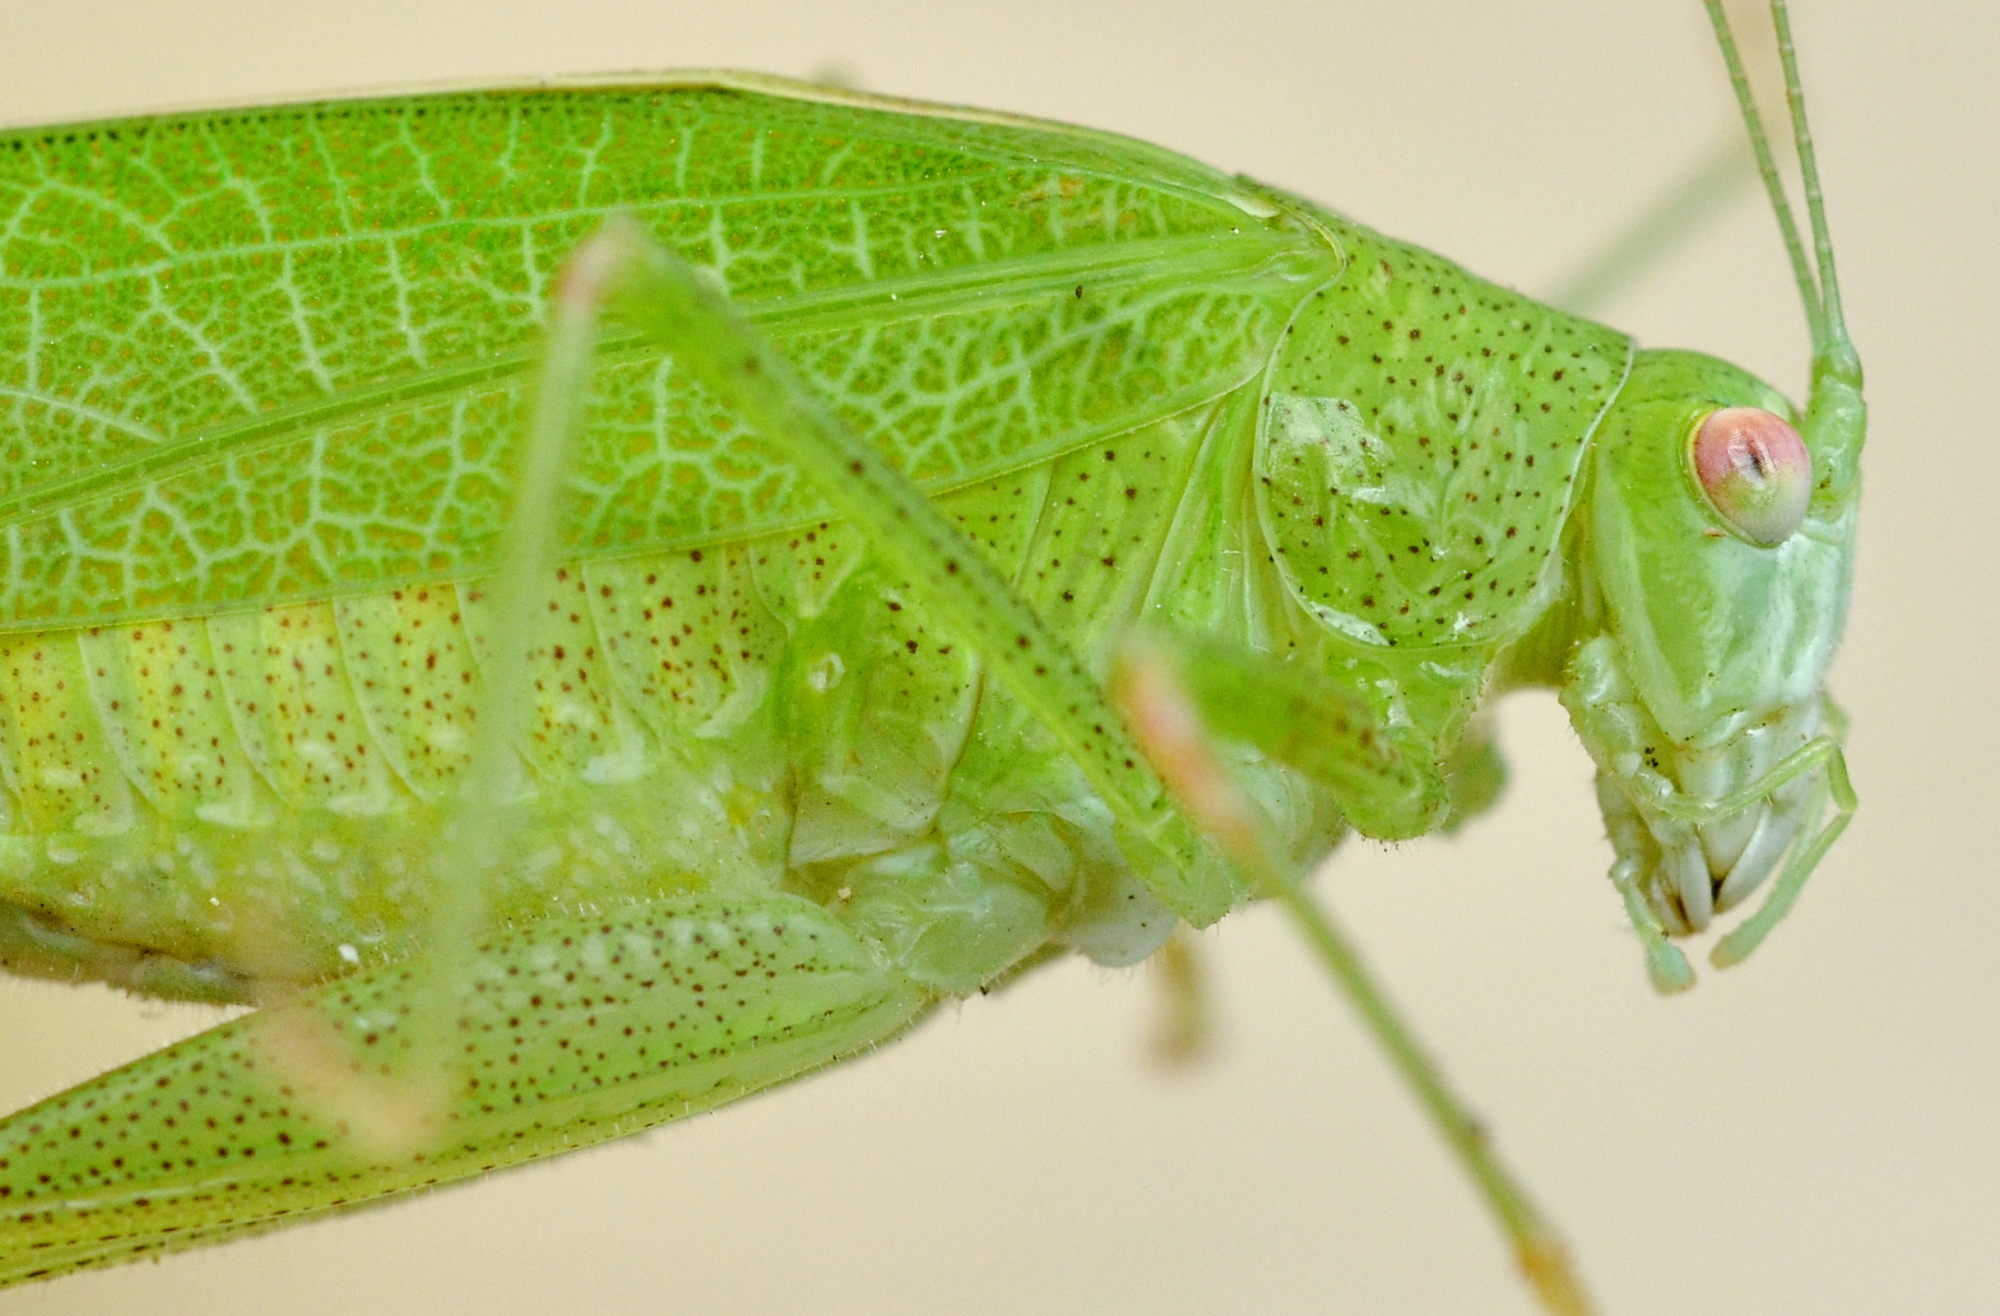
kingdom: Animalia
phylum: Arthropoda
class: Insecta
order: Orthoptera
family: Tettigoniidae
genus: Phaneroptera
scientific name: Phaneroptera nana
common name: Southern sickle bush-cricket
